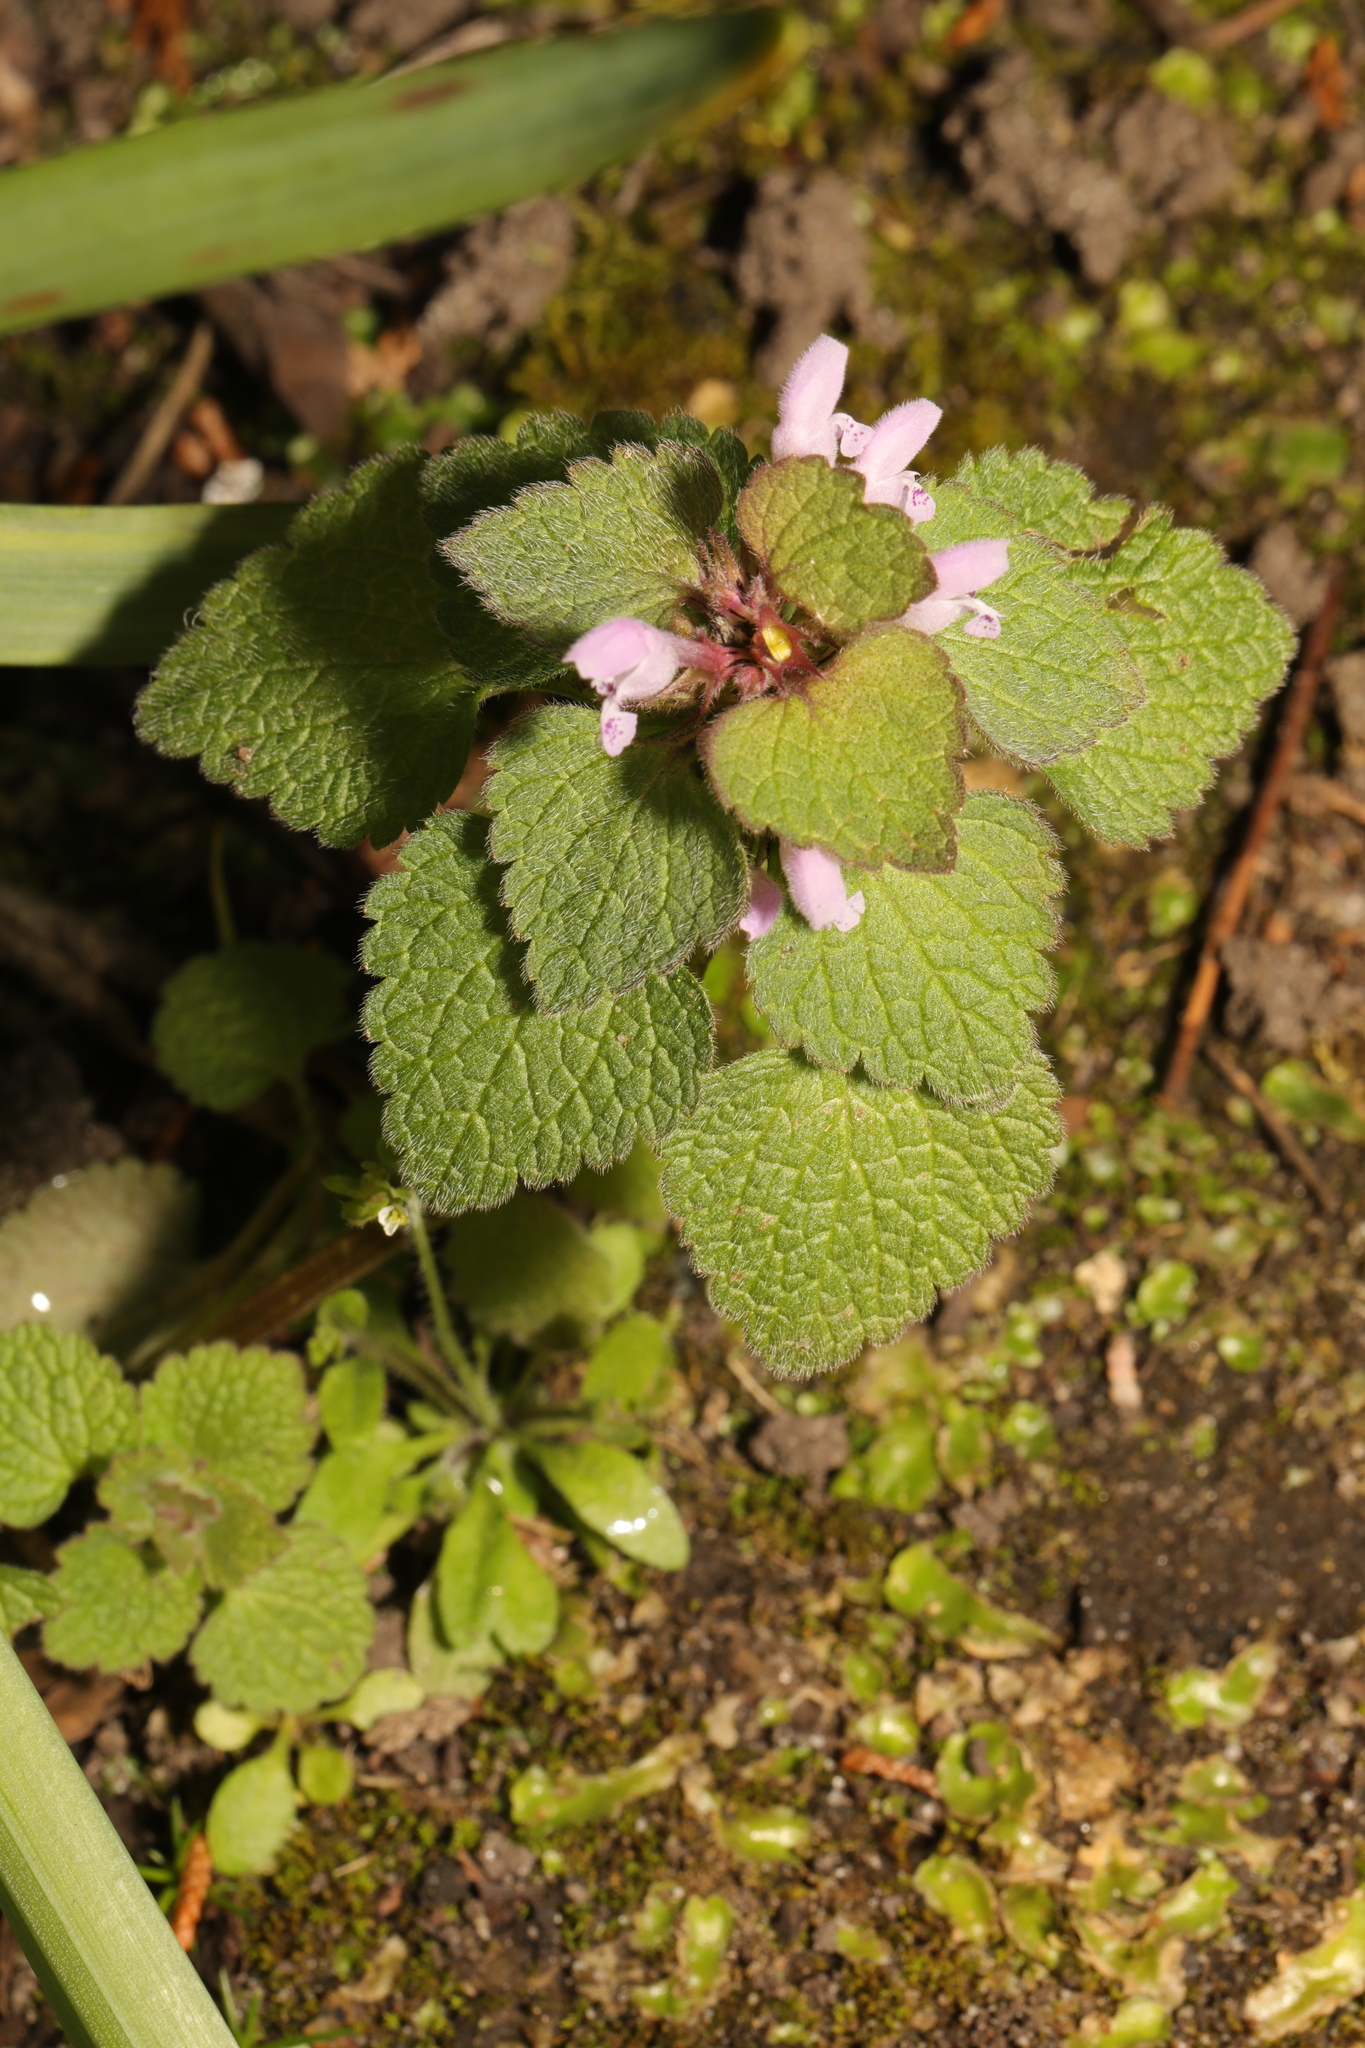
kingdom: Plantae
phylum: Tracheophyta
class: Magnoliopsida
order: Lamiales
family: Lamiaceae
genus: Lamium
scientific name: Lamium purpureum
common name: Red dead-nettle
